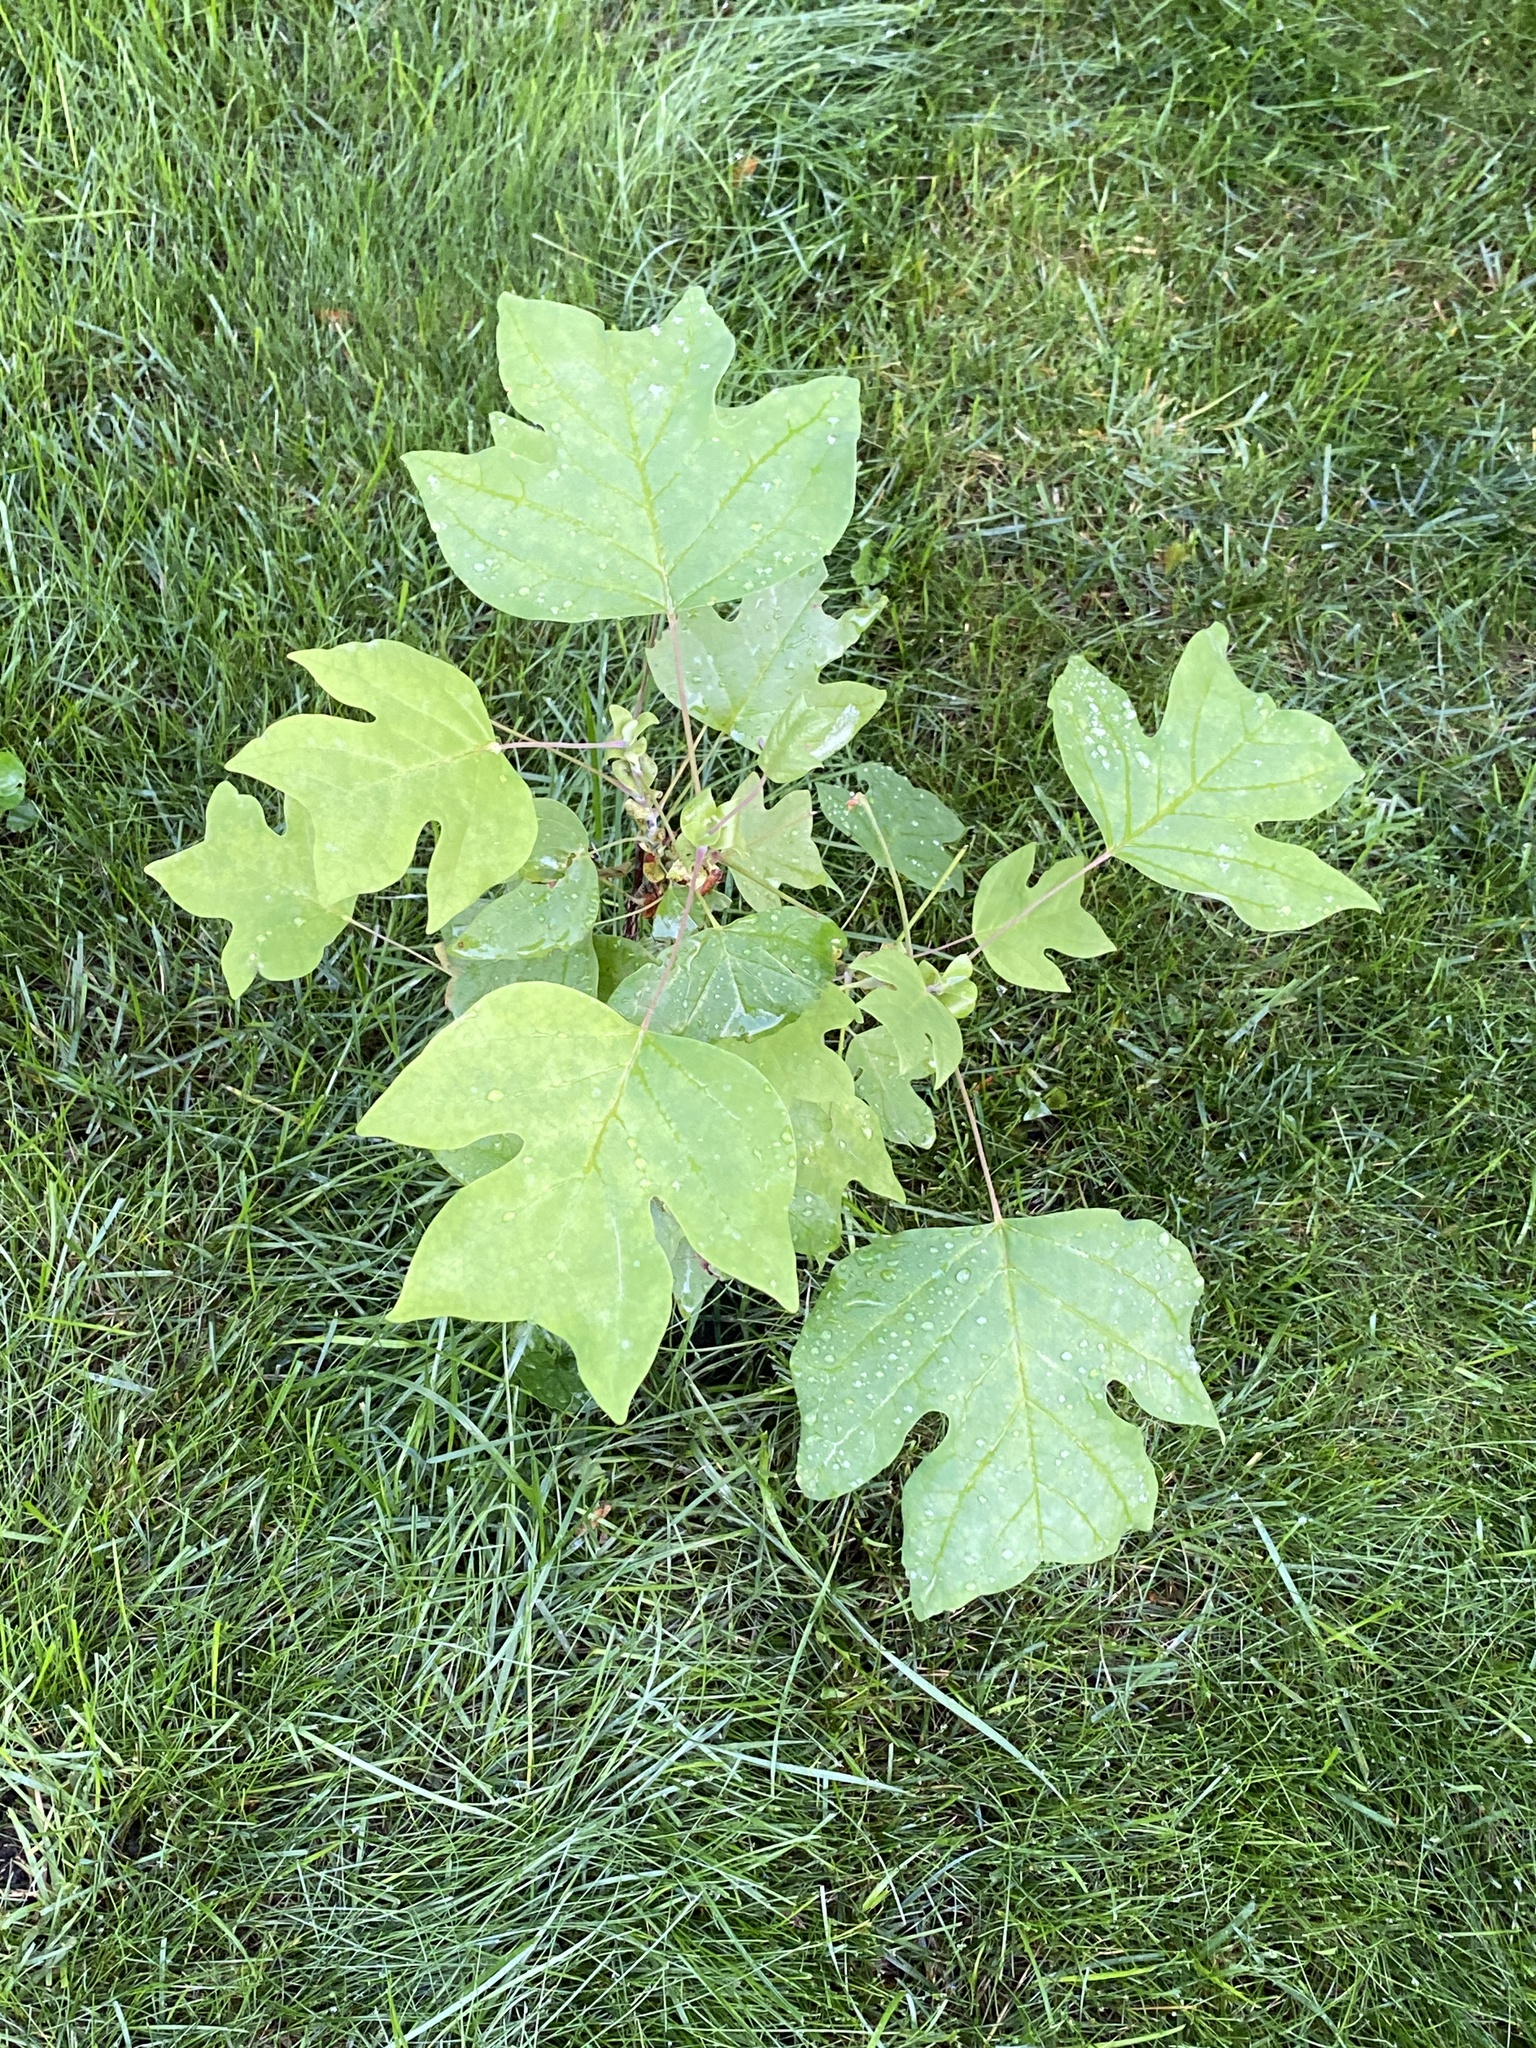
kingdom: Plantae
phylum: Tracheophyta
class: Magnoliopsida
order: Magnoliales
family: Magnoliaceae
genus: Liriodendron
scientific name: Liriodendron tulipifera
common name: Tulip tree
